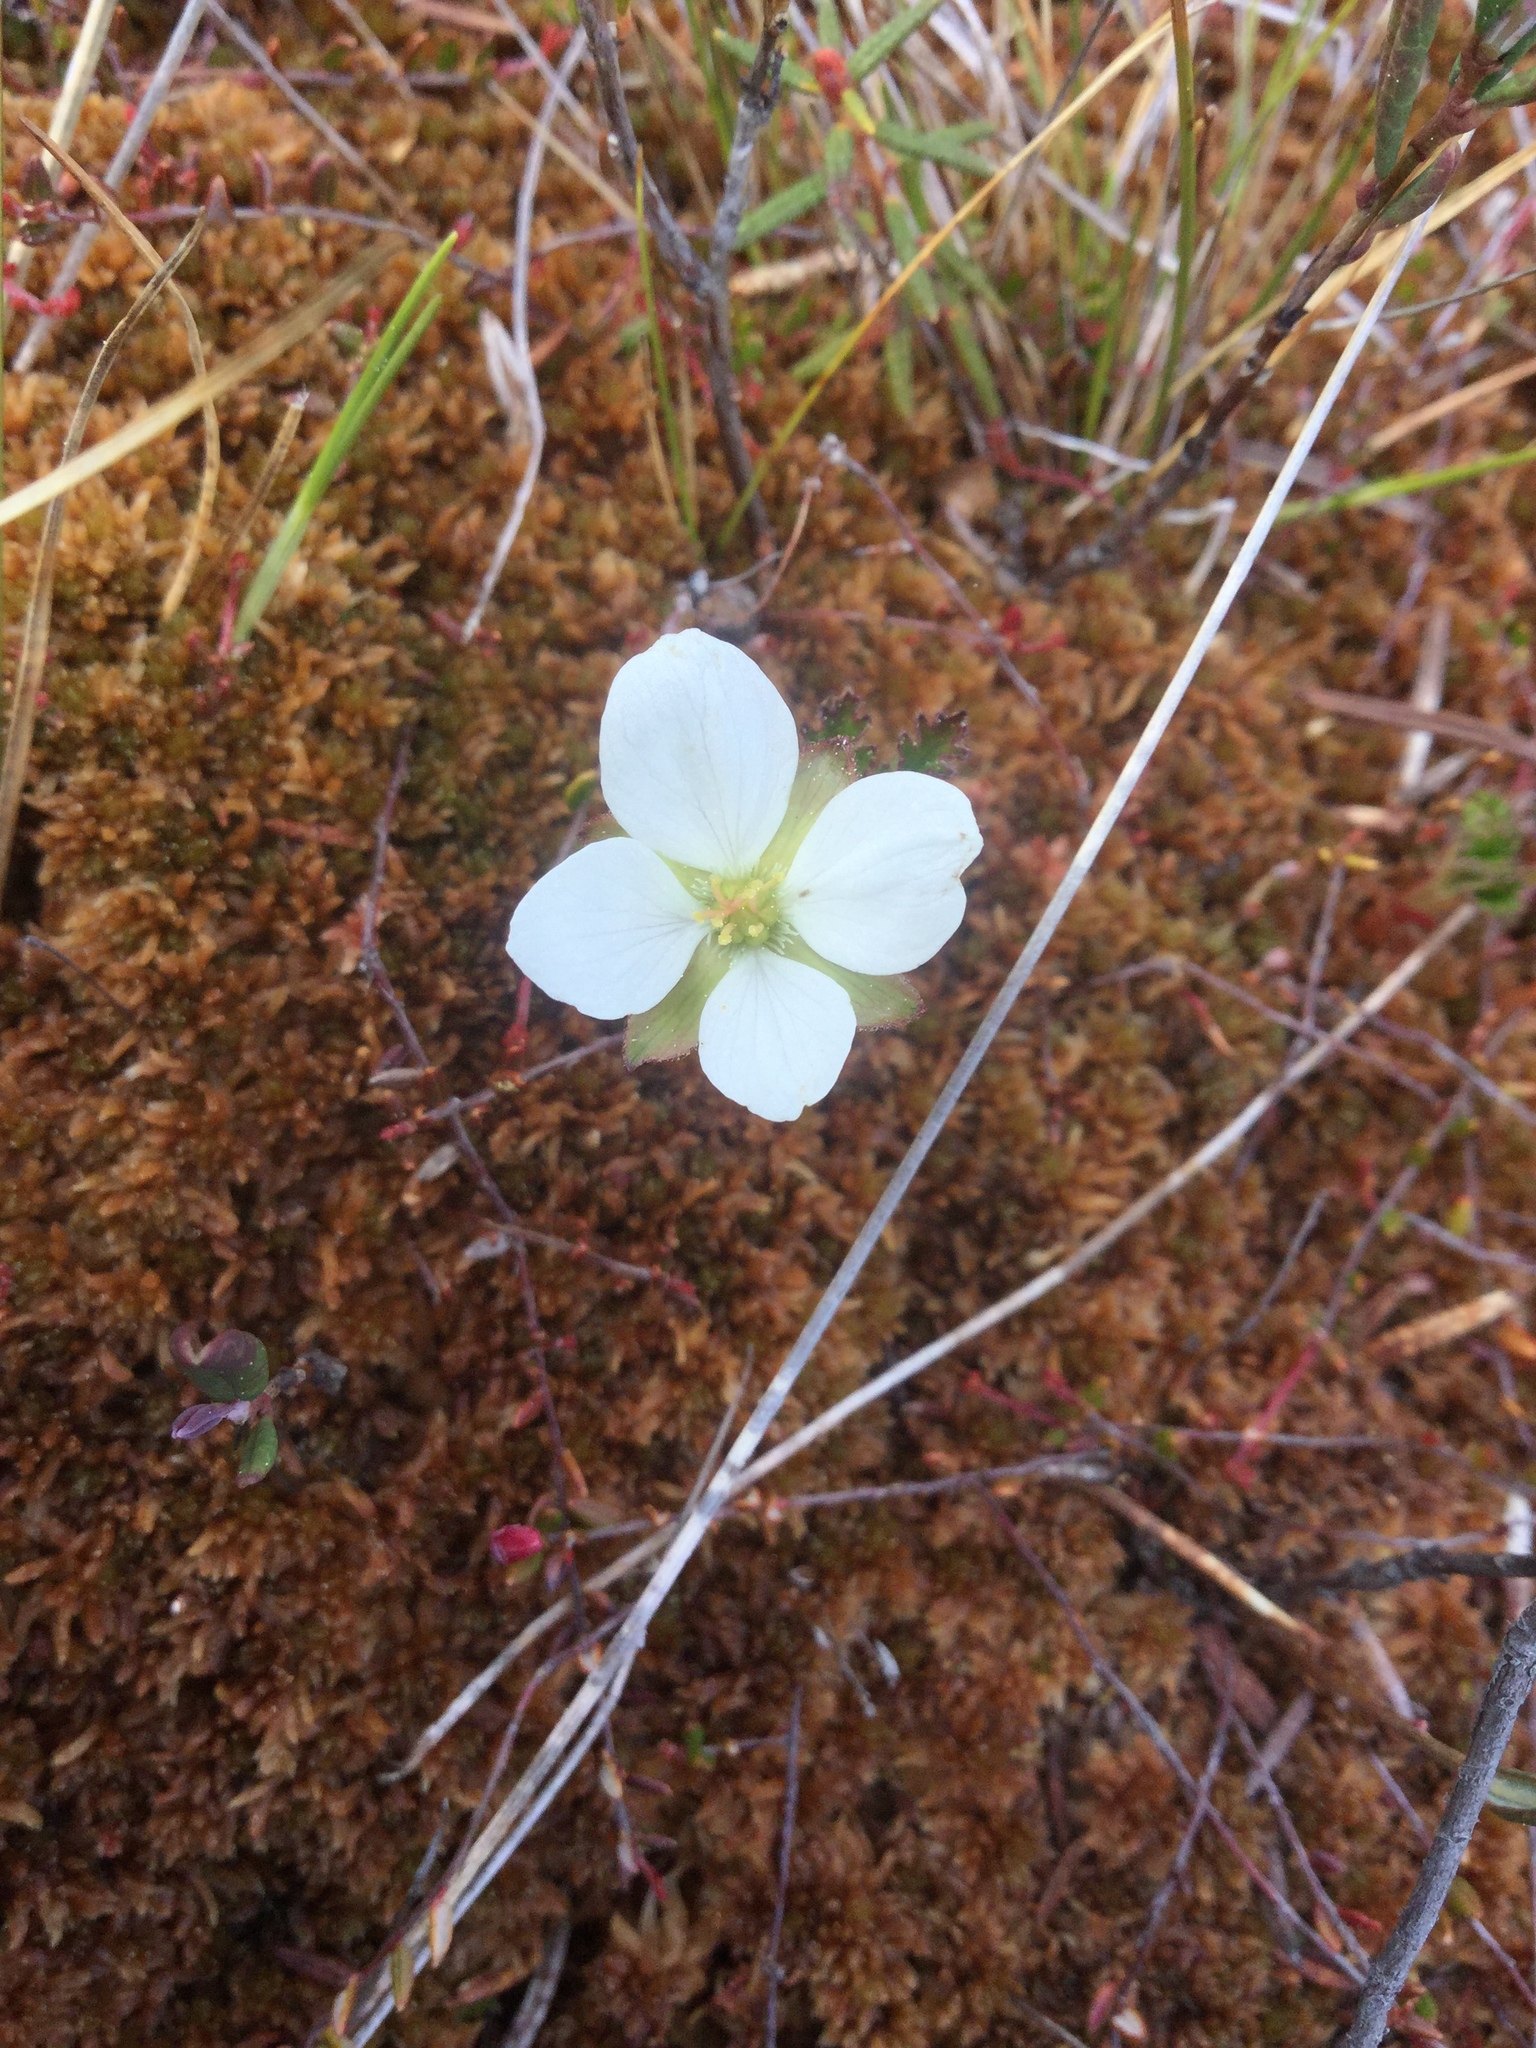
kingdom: Plantae
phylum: Tracheophyta
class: Magnoliopsida
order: Rosales
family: Rosaceae
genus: Rubus
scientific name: Rubus chamaemorus
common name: Cloudberry
